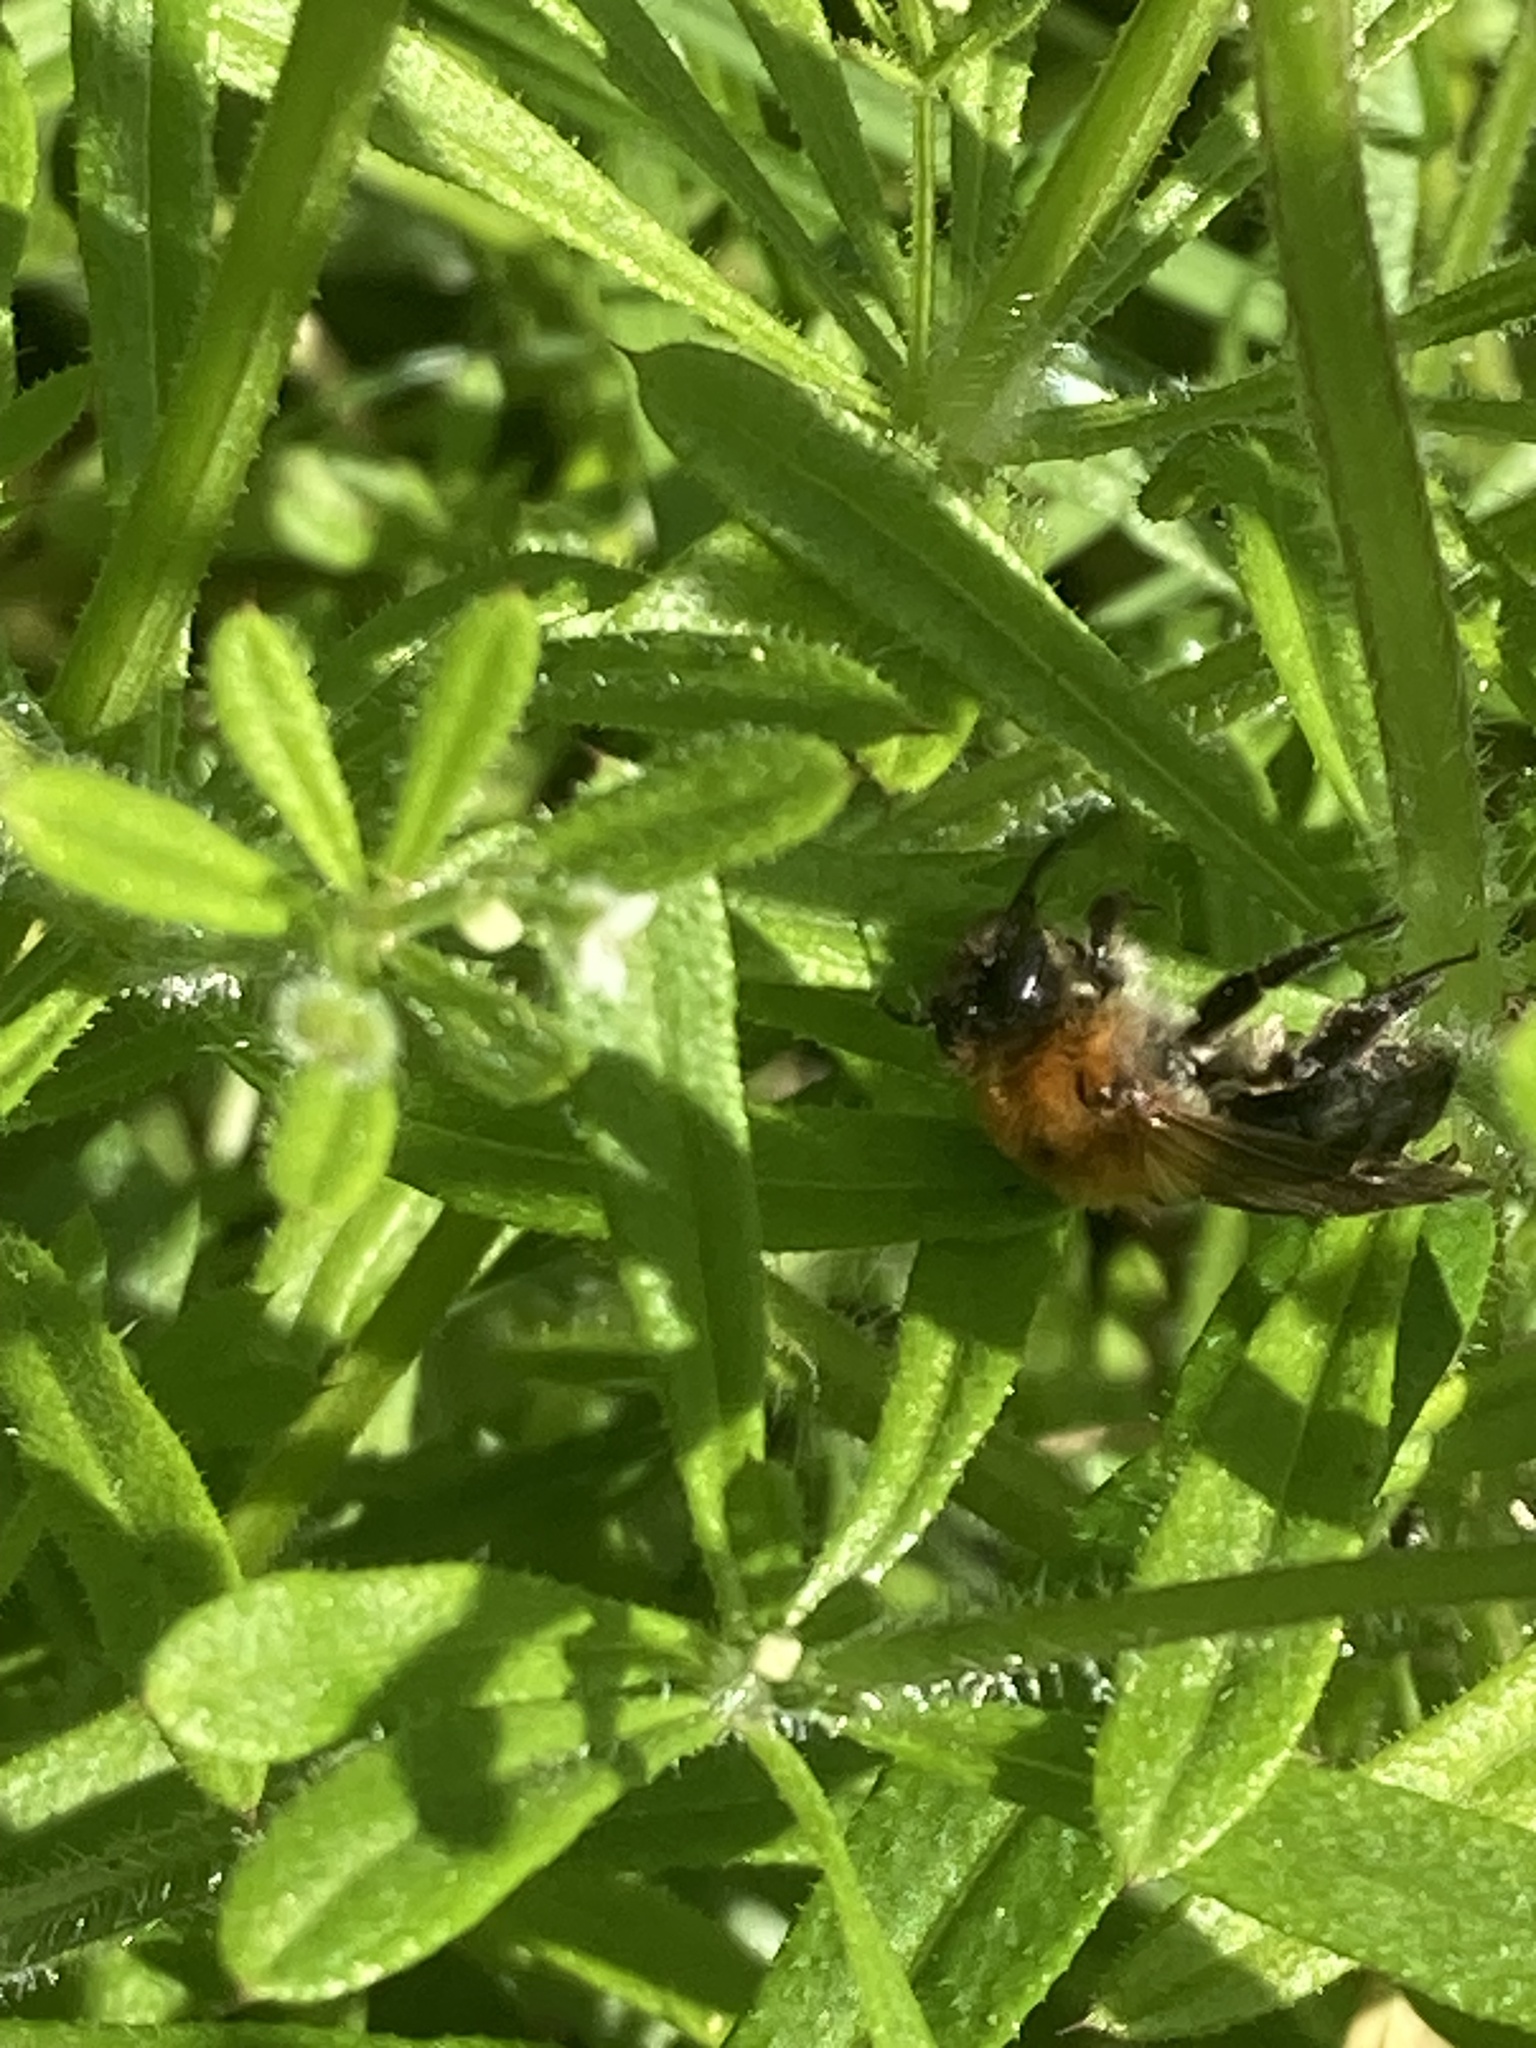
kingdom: Animalia
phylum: Arthropoda
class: Insecta
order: Hymenoptera
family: Andrenidae
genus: Andrena
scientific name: Andrena nitida
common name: Grey-patched mining bee
